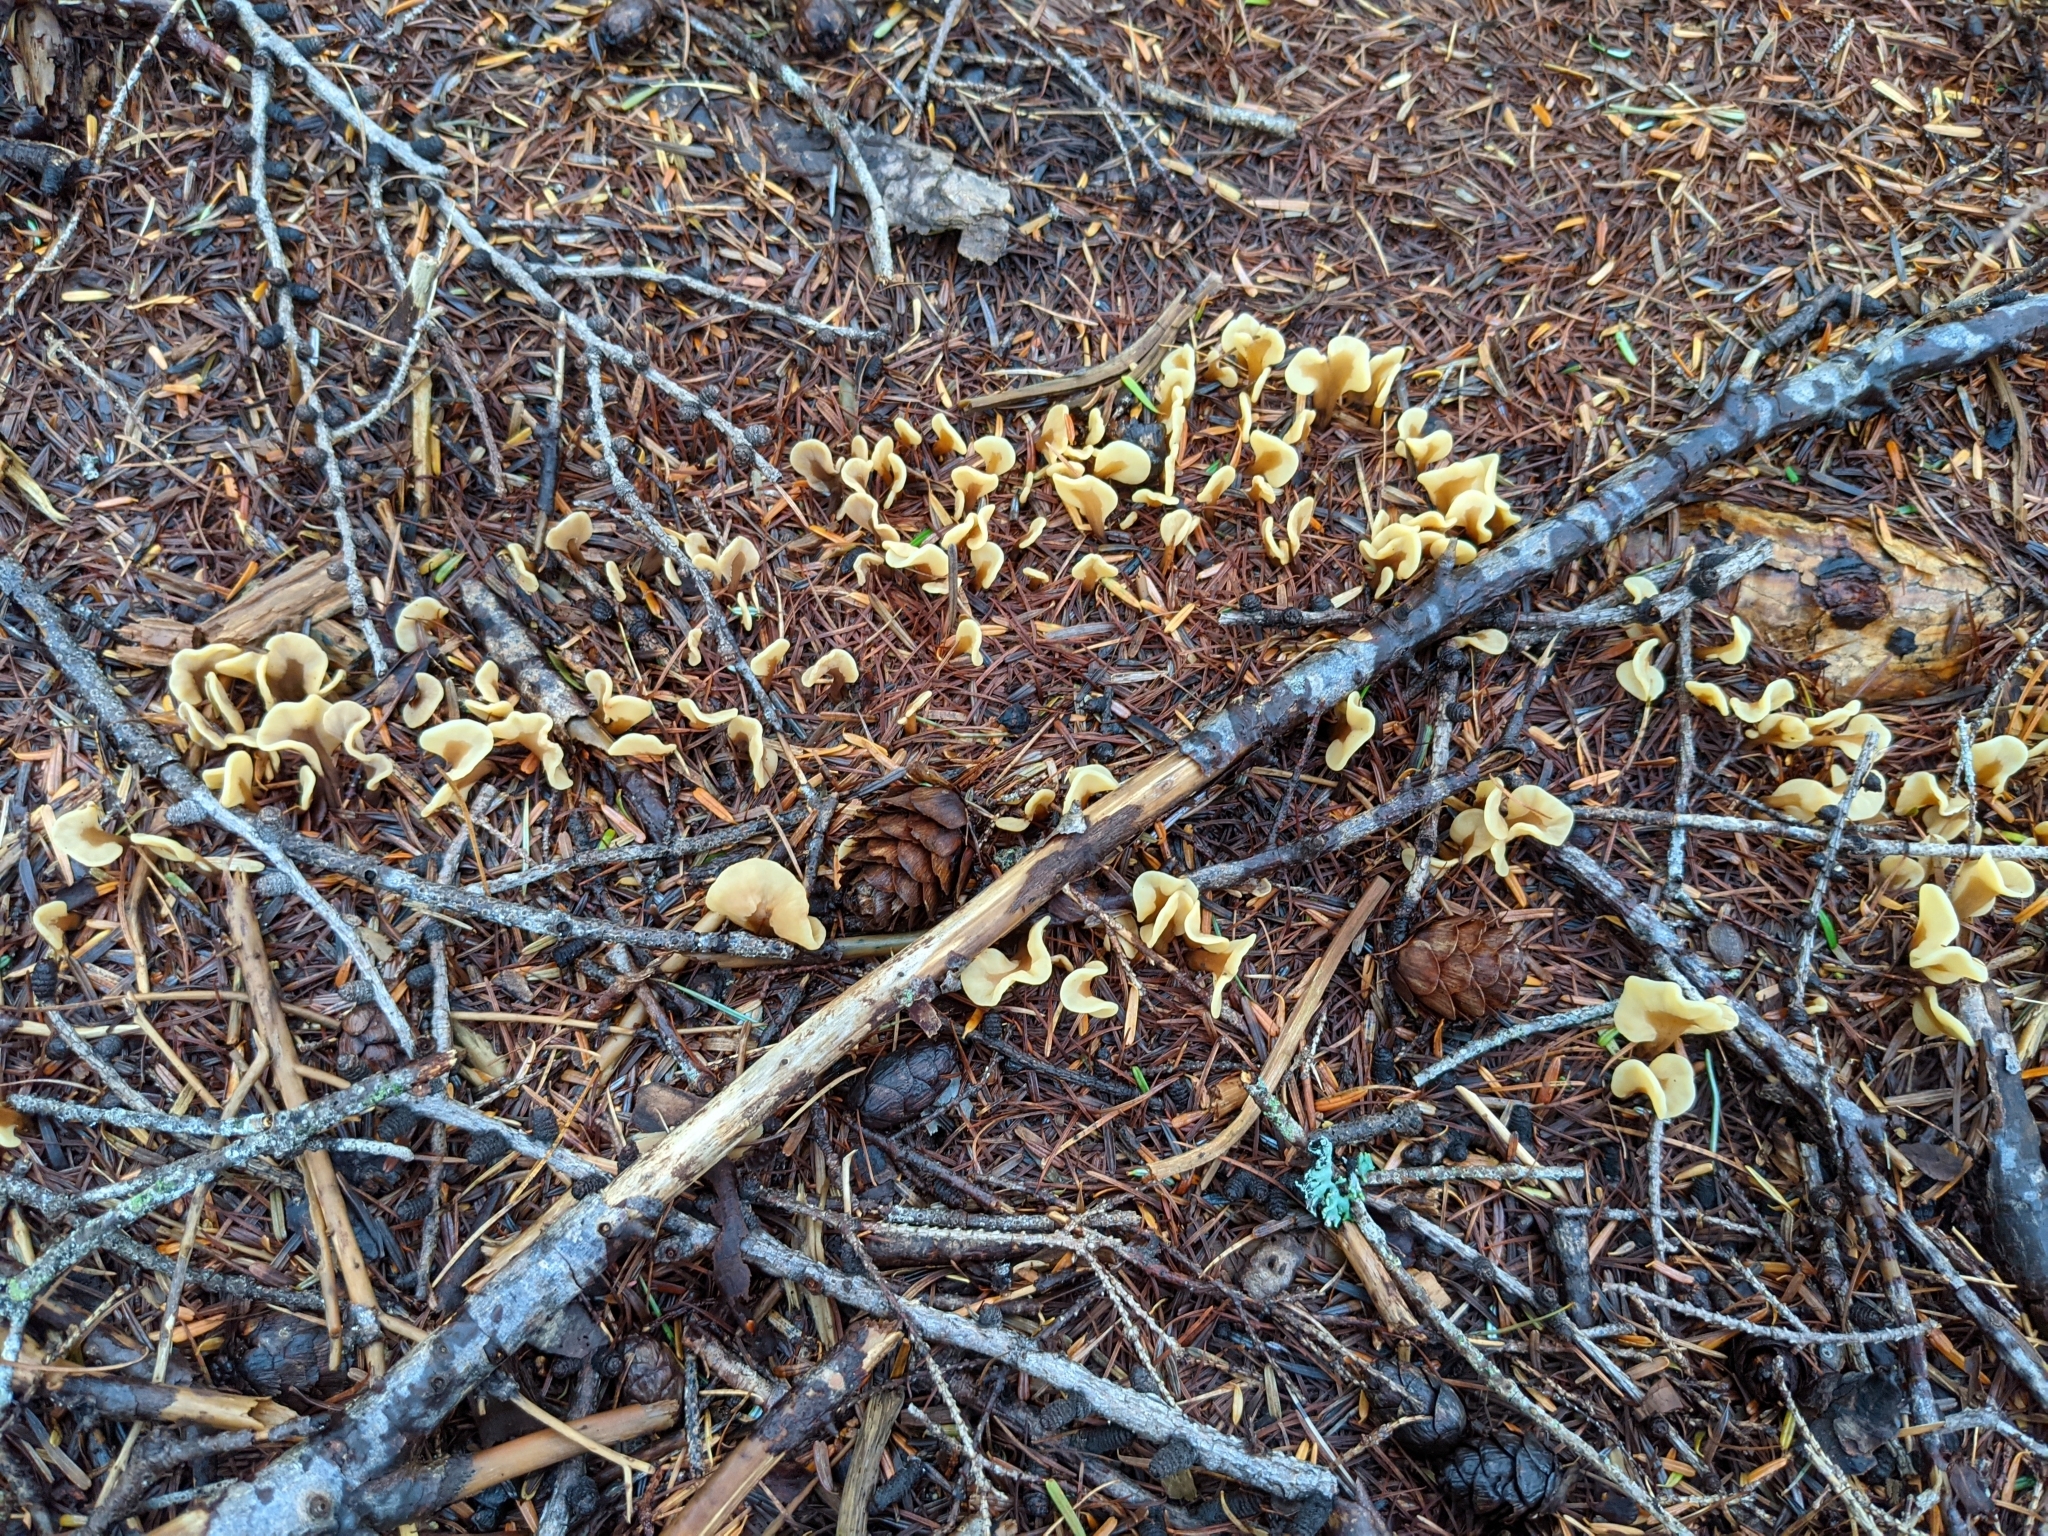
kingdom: Fungi
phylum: Ascomycota
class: Leotiomycetes
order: Rhytismatales
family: Cudoniaceae
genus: Spathulariopsis
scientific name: Spathulariopsis velutipes
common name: Velvet-foot fairy fan
